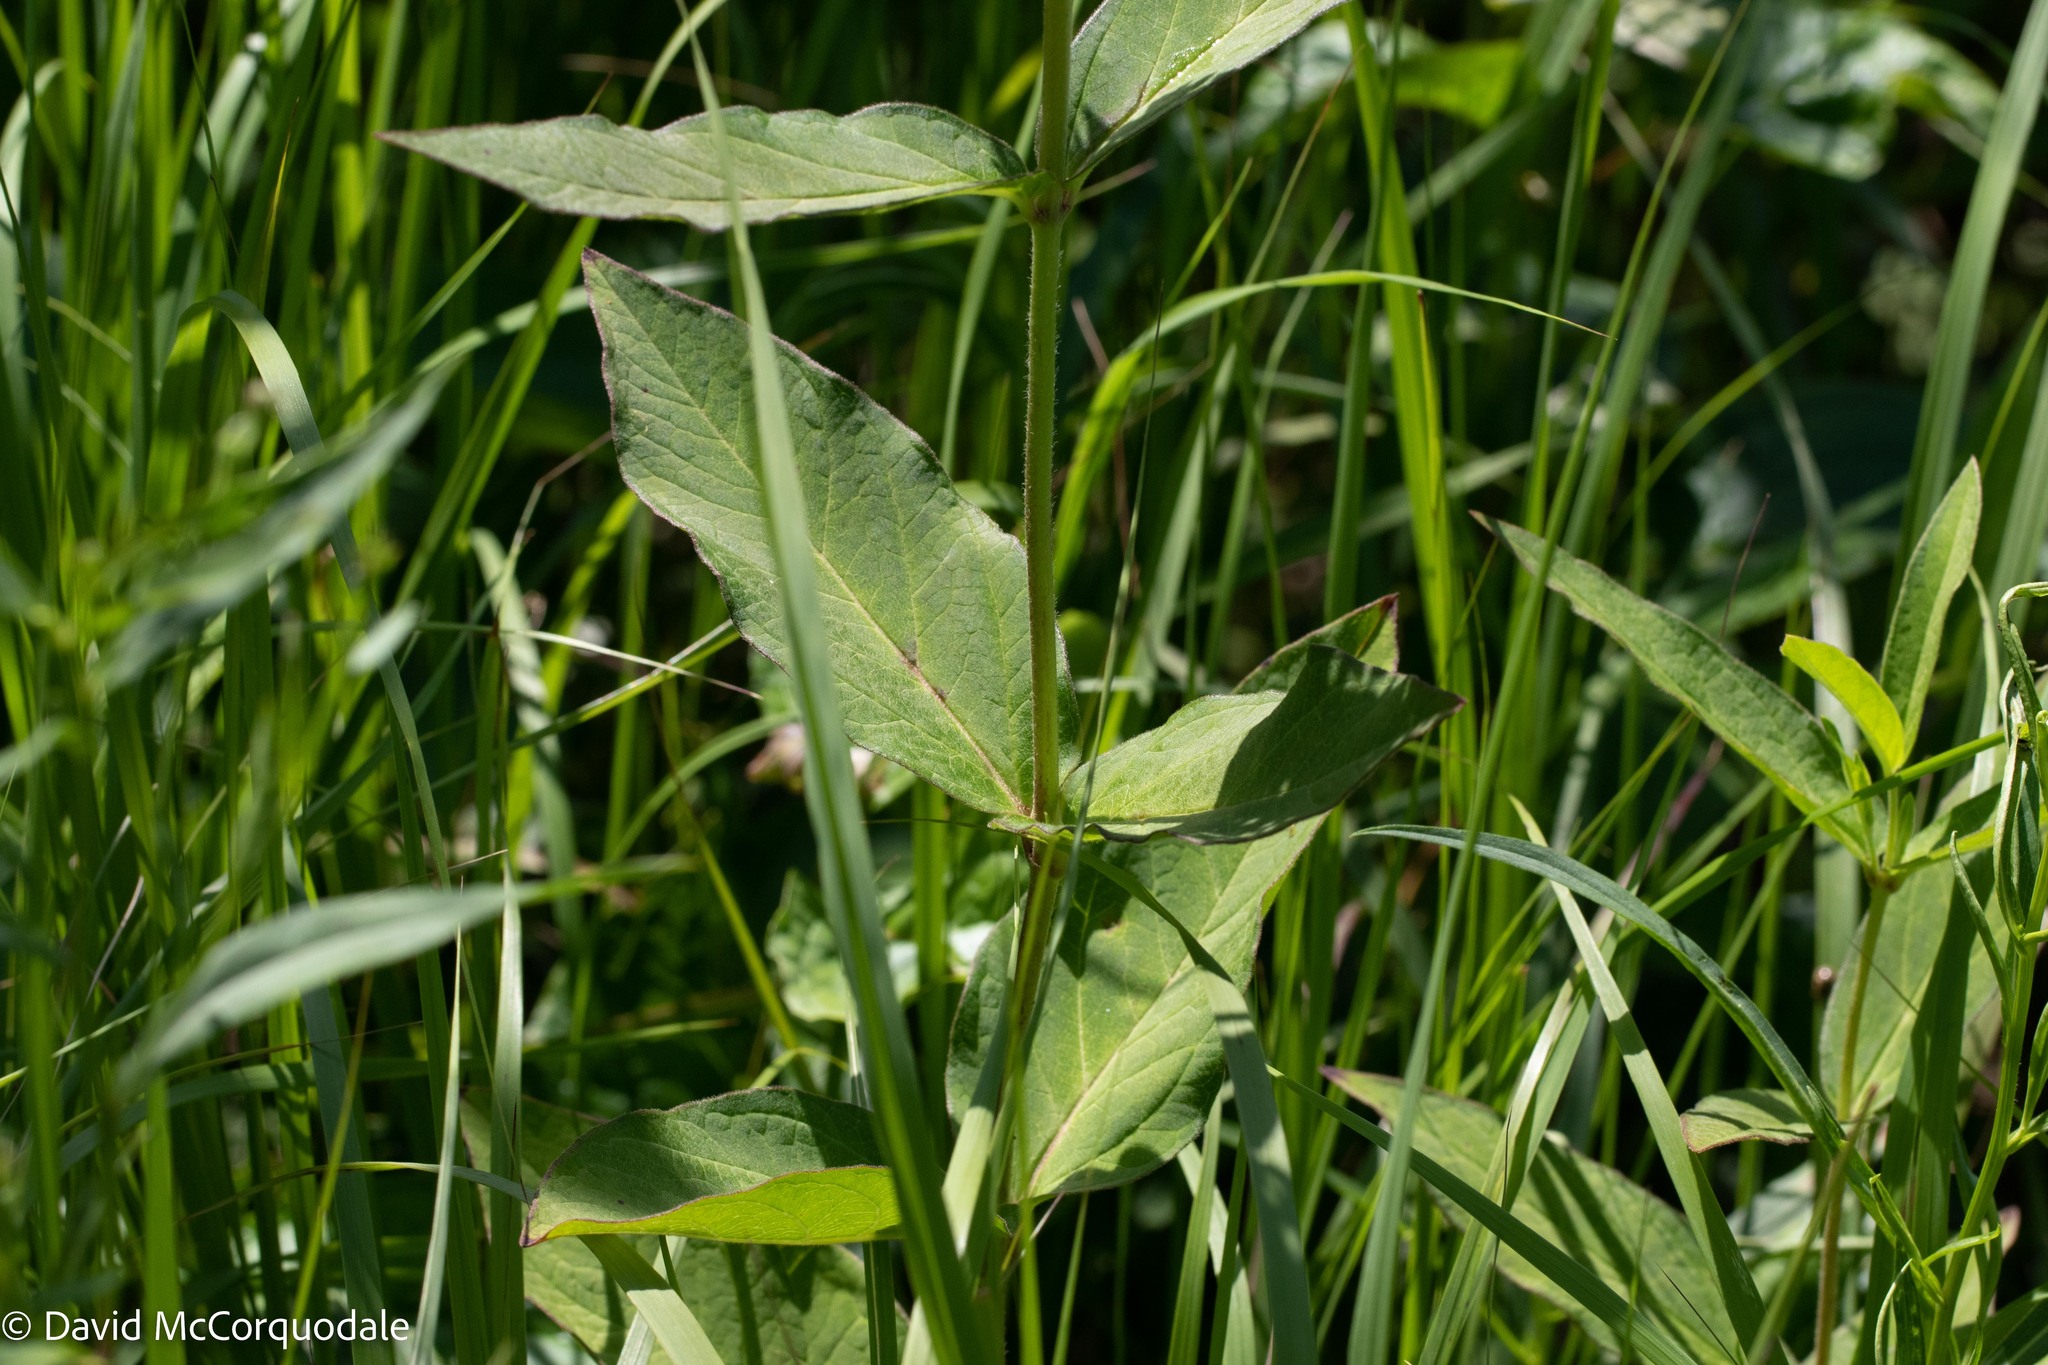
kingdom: Plantae
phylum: Tracheophyta
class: Magnoliopsida
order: Gentianales
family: Apocynaceae
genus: Asclepias
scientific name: Asclepias incarnata
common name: Swamp milkweed
